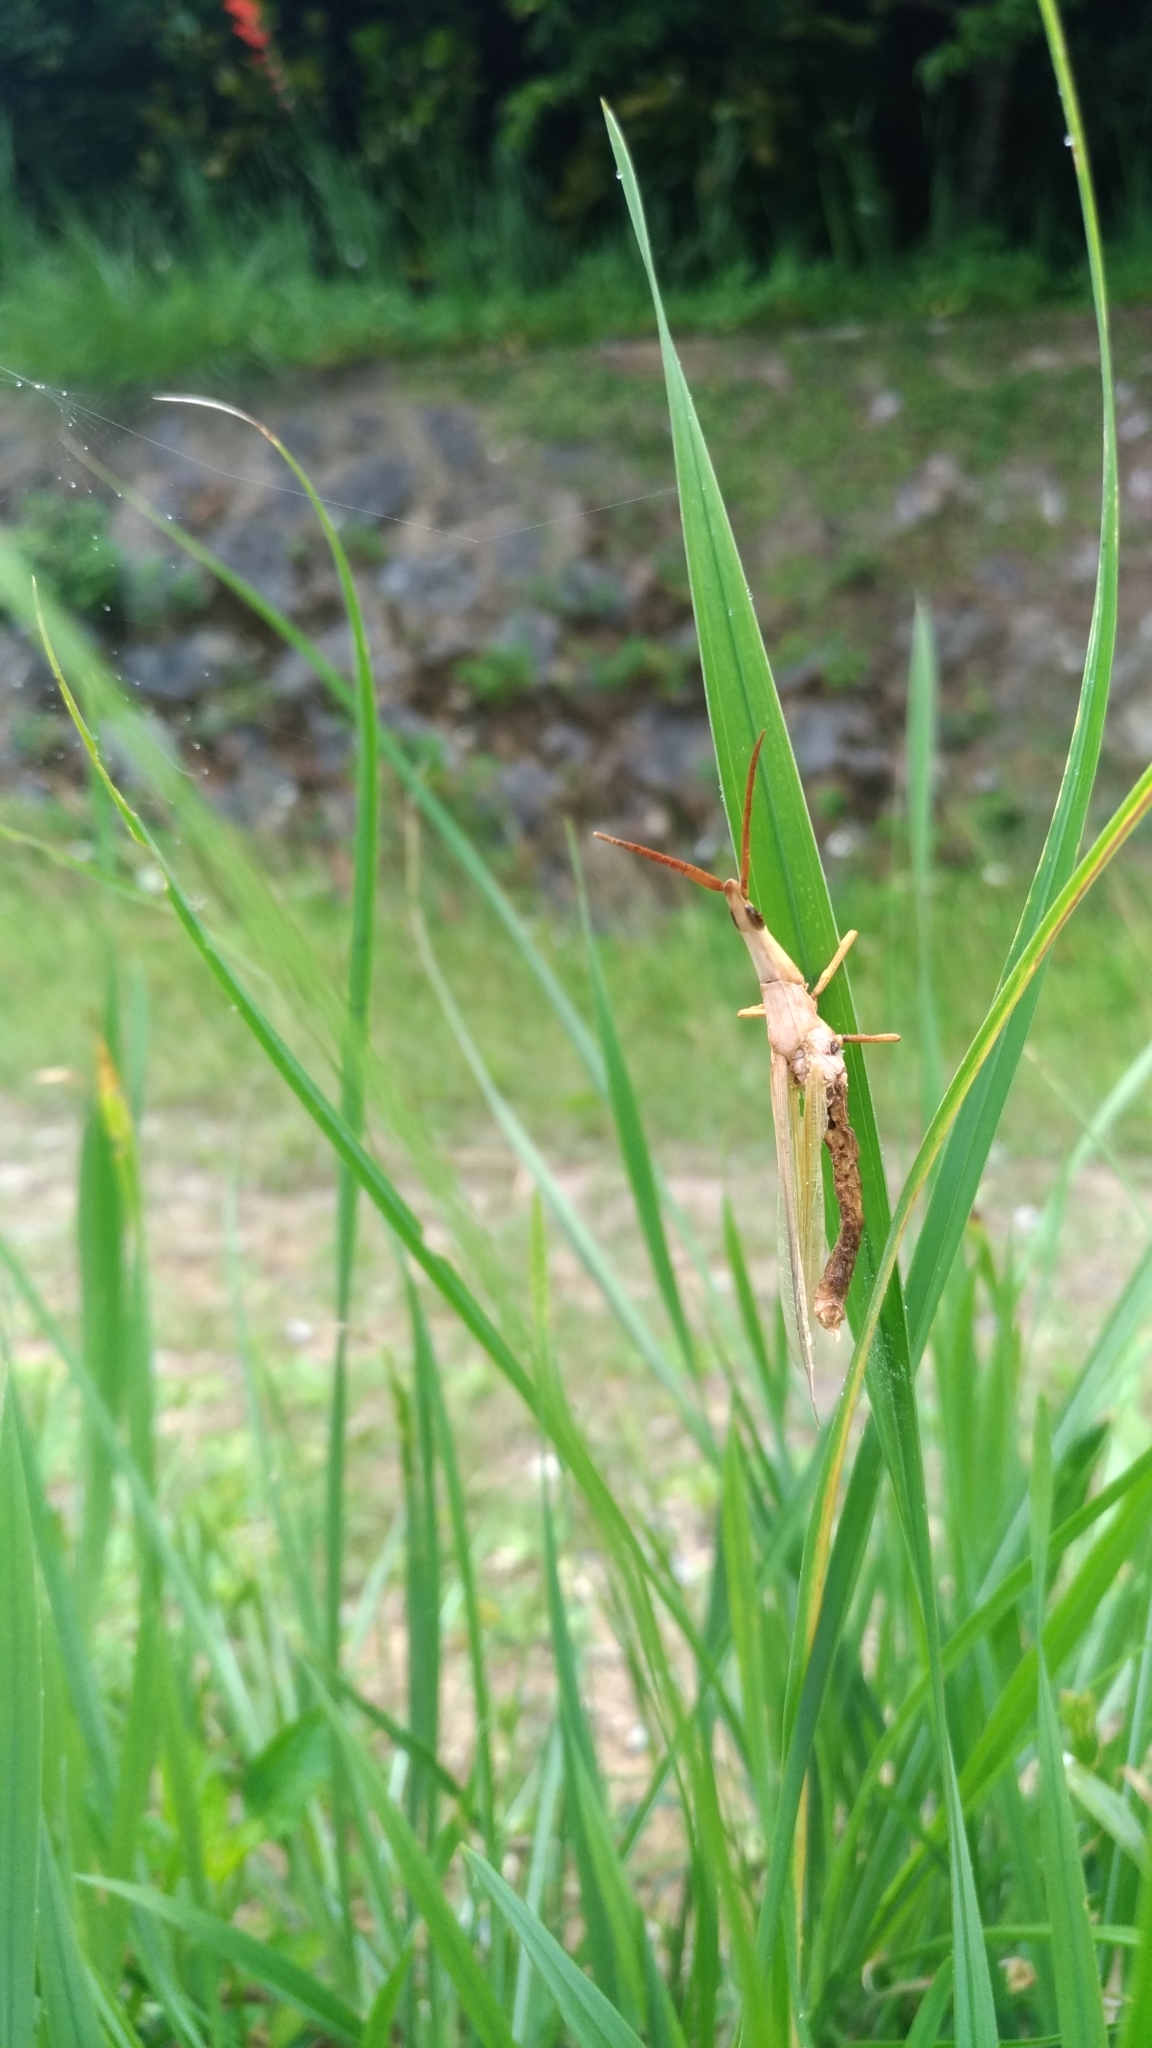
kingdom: Animalia
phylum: Arthropoda
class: Insecta
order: Orthoptera
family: Acrididae
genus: Acrida
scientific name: Acrida cinerea
